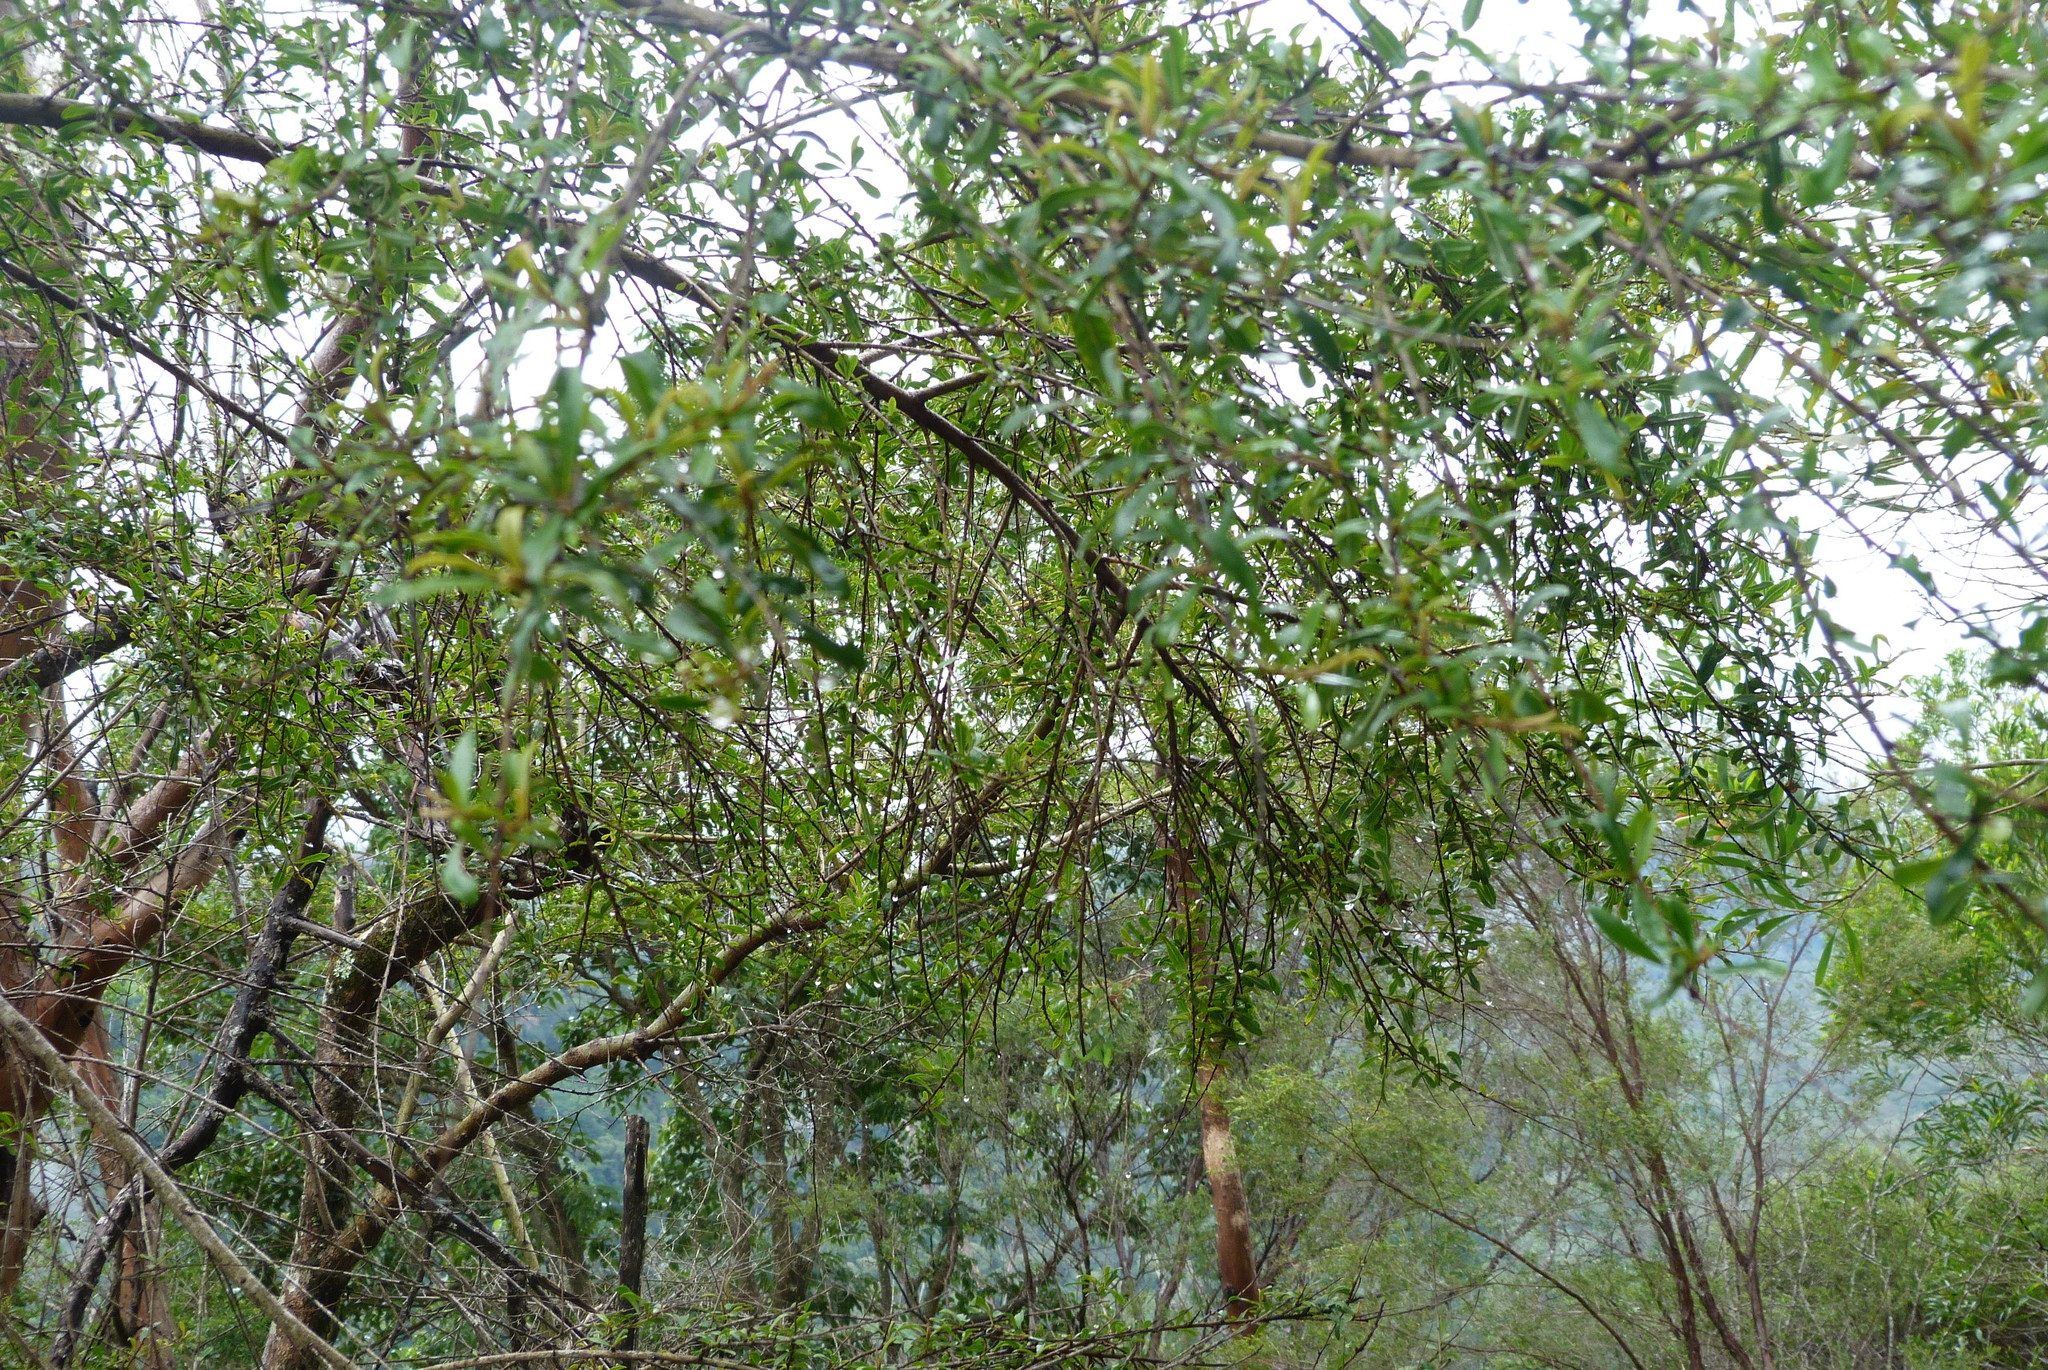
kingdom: Plantae
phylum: Tracheophyta
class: Magnoliopsida
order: Apiales
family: Pittosporaceae
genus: Bursaria
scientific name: Bursaria spinosa
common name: Australian blackthorn
